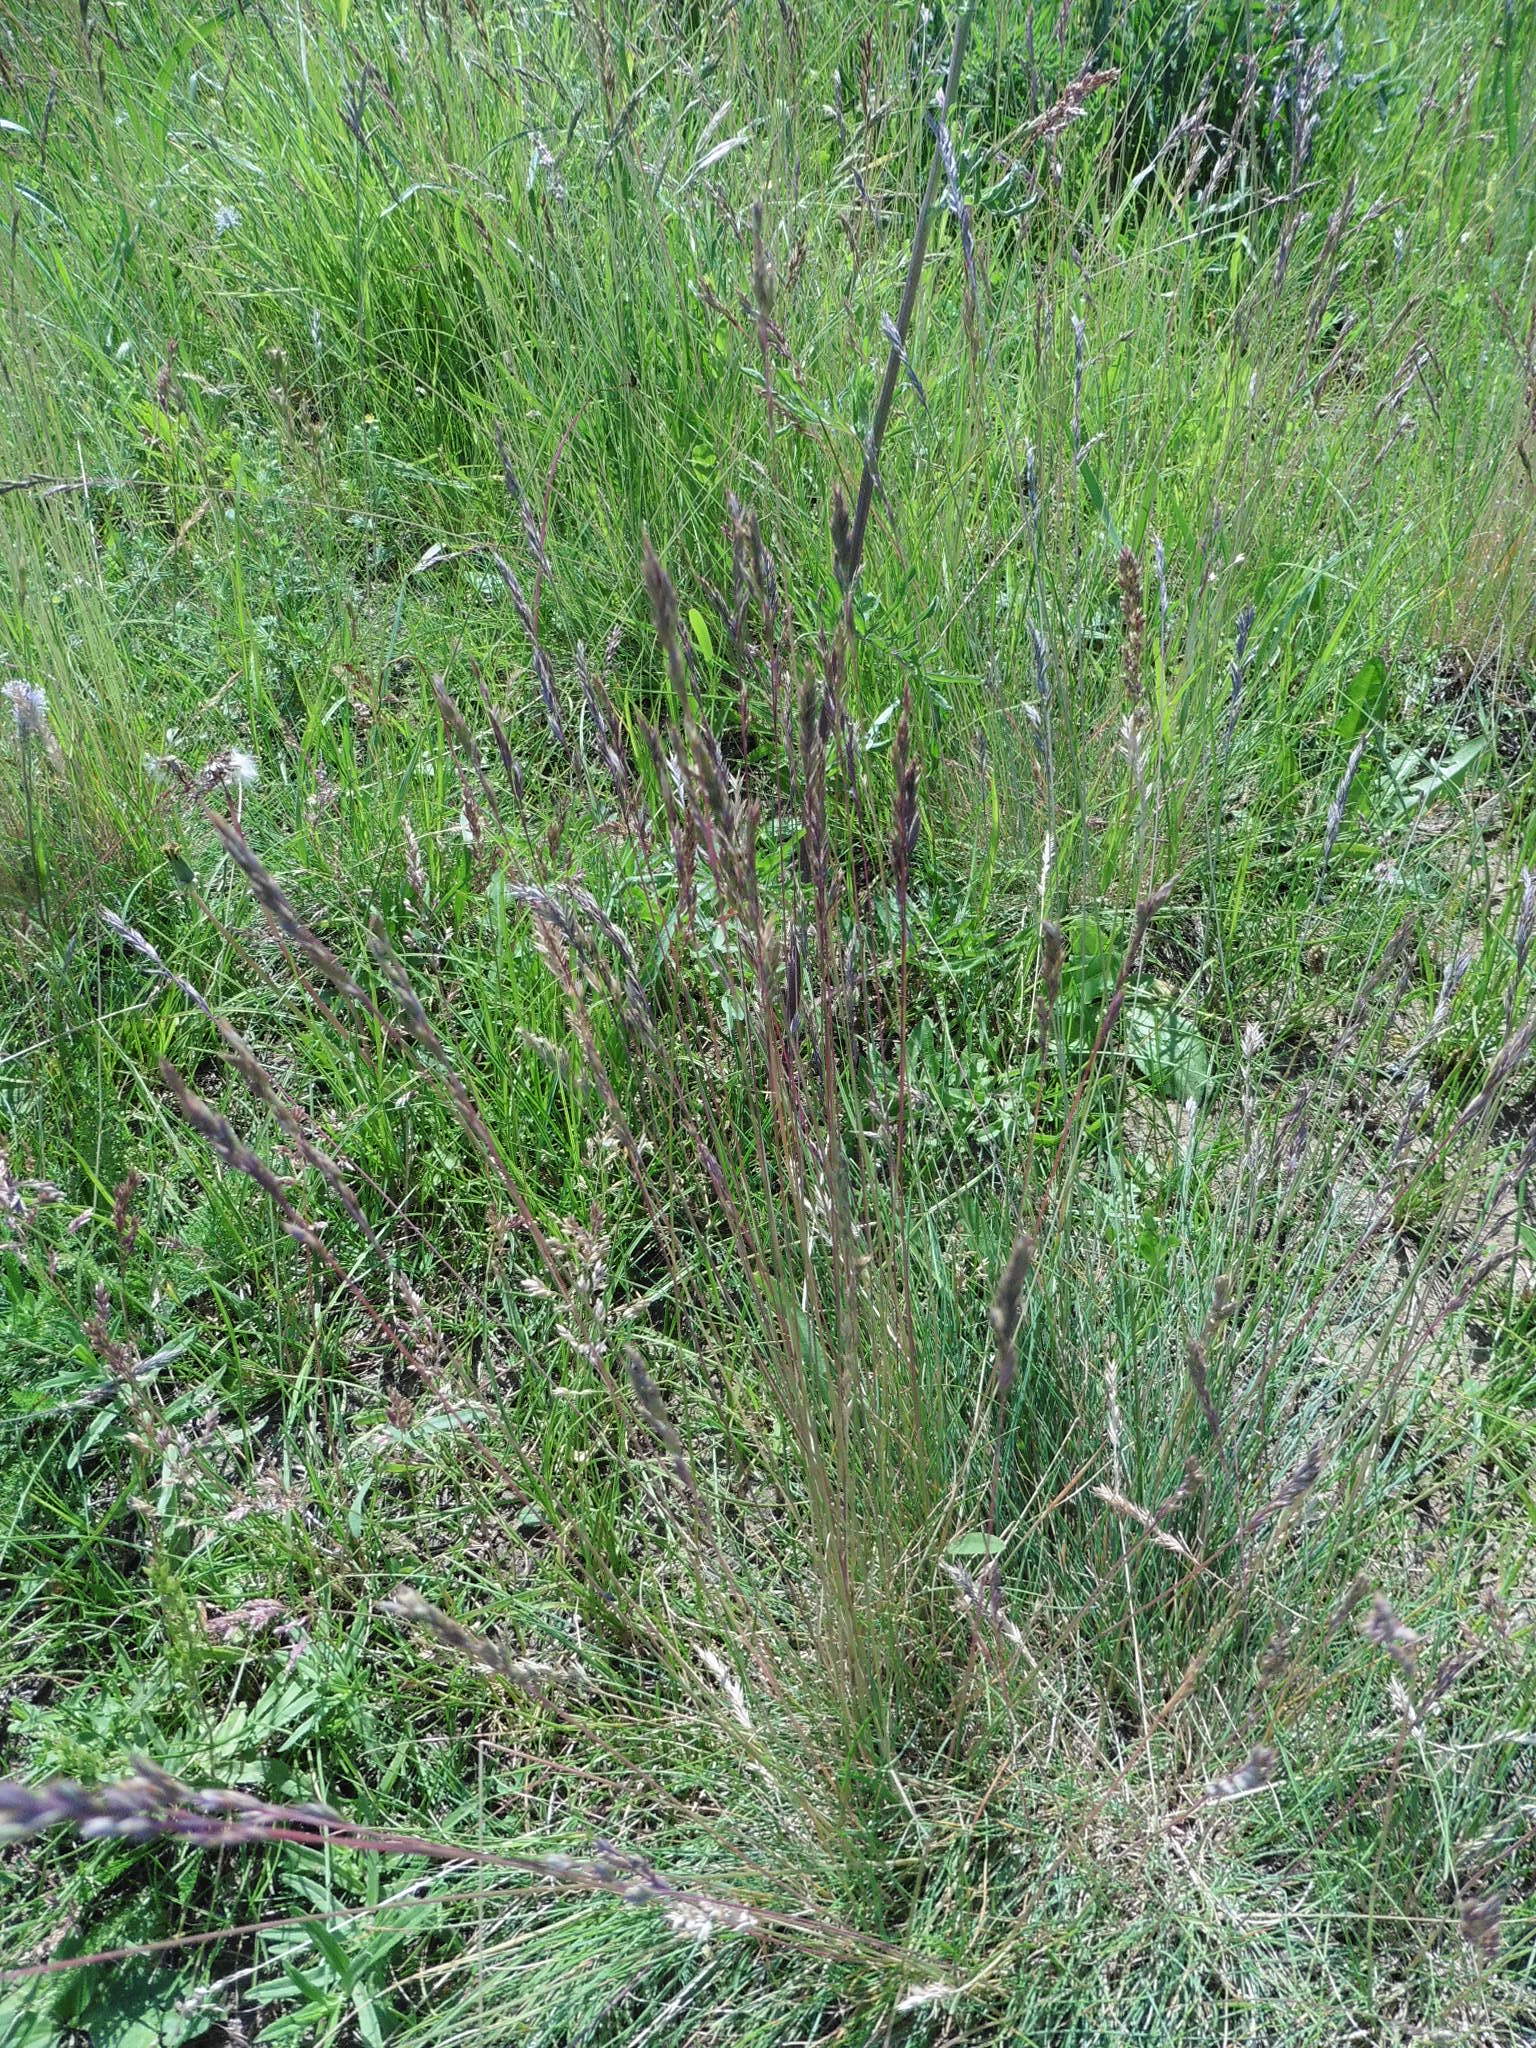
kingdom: Plantae
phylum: Tracheophyta
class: Liliopsida
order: Poales
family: Poaceae
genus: Festuca
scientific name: Festuca valesiaca
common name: Volga fescue
